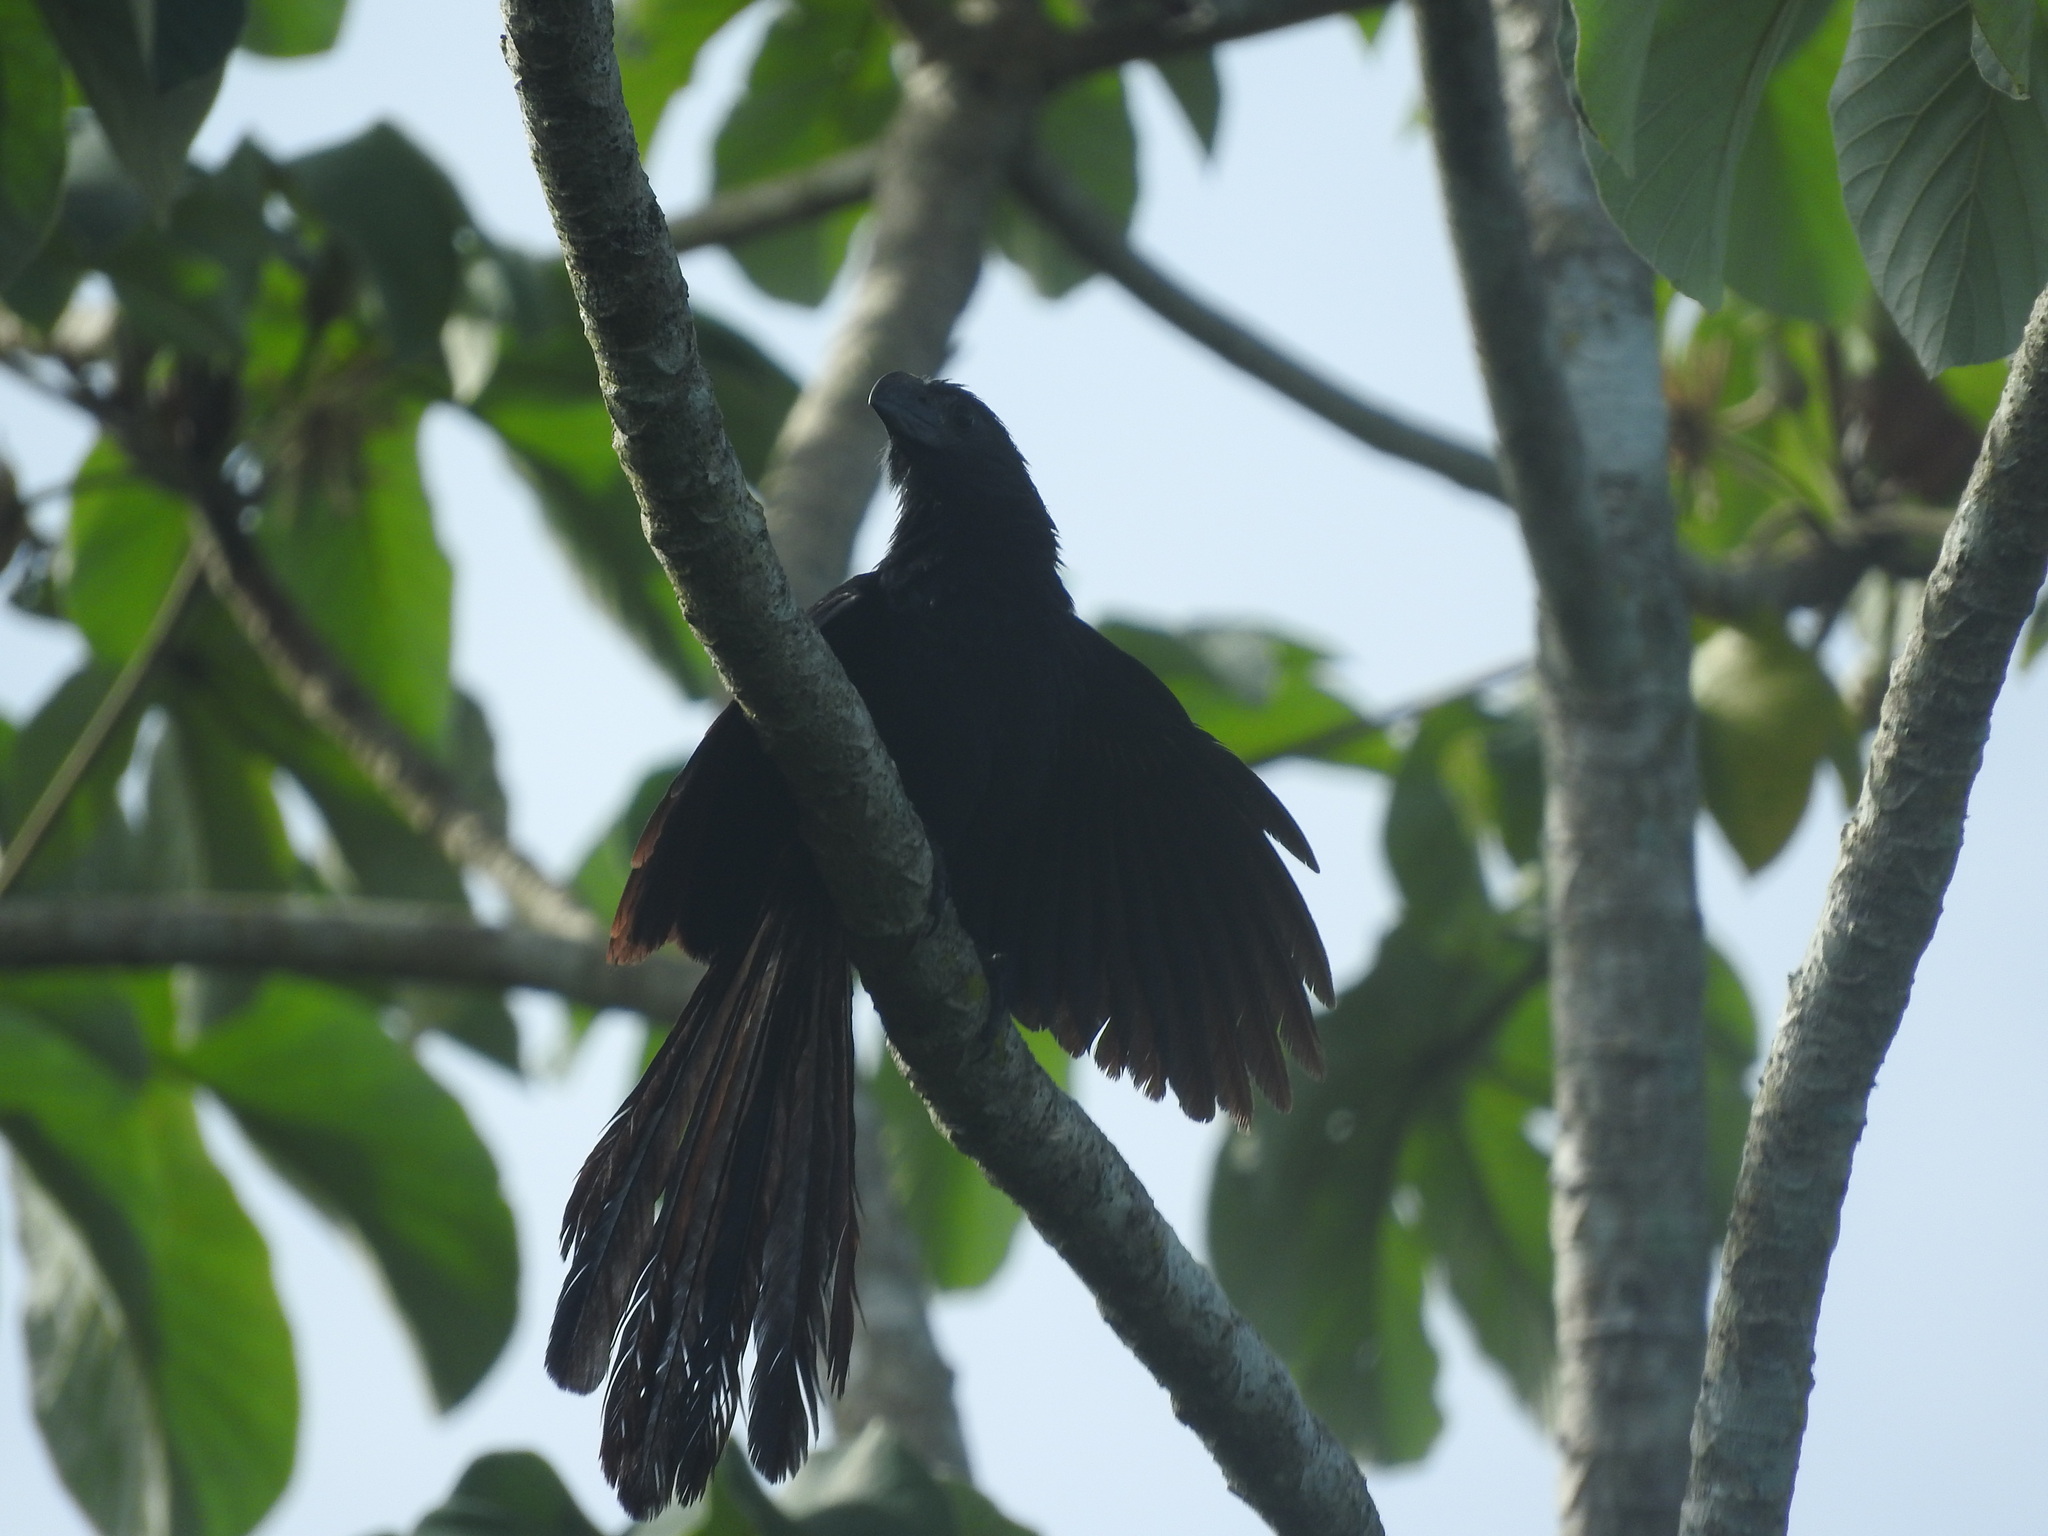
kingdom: Animalia
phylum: Chordata
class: Aves
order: Cuculiformes
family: Cuculidae
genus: Crotophaga
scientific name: Crotophaga sulcirostris
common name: Groove-billed ani
